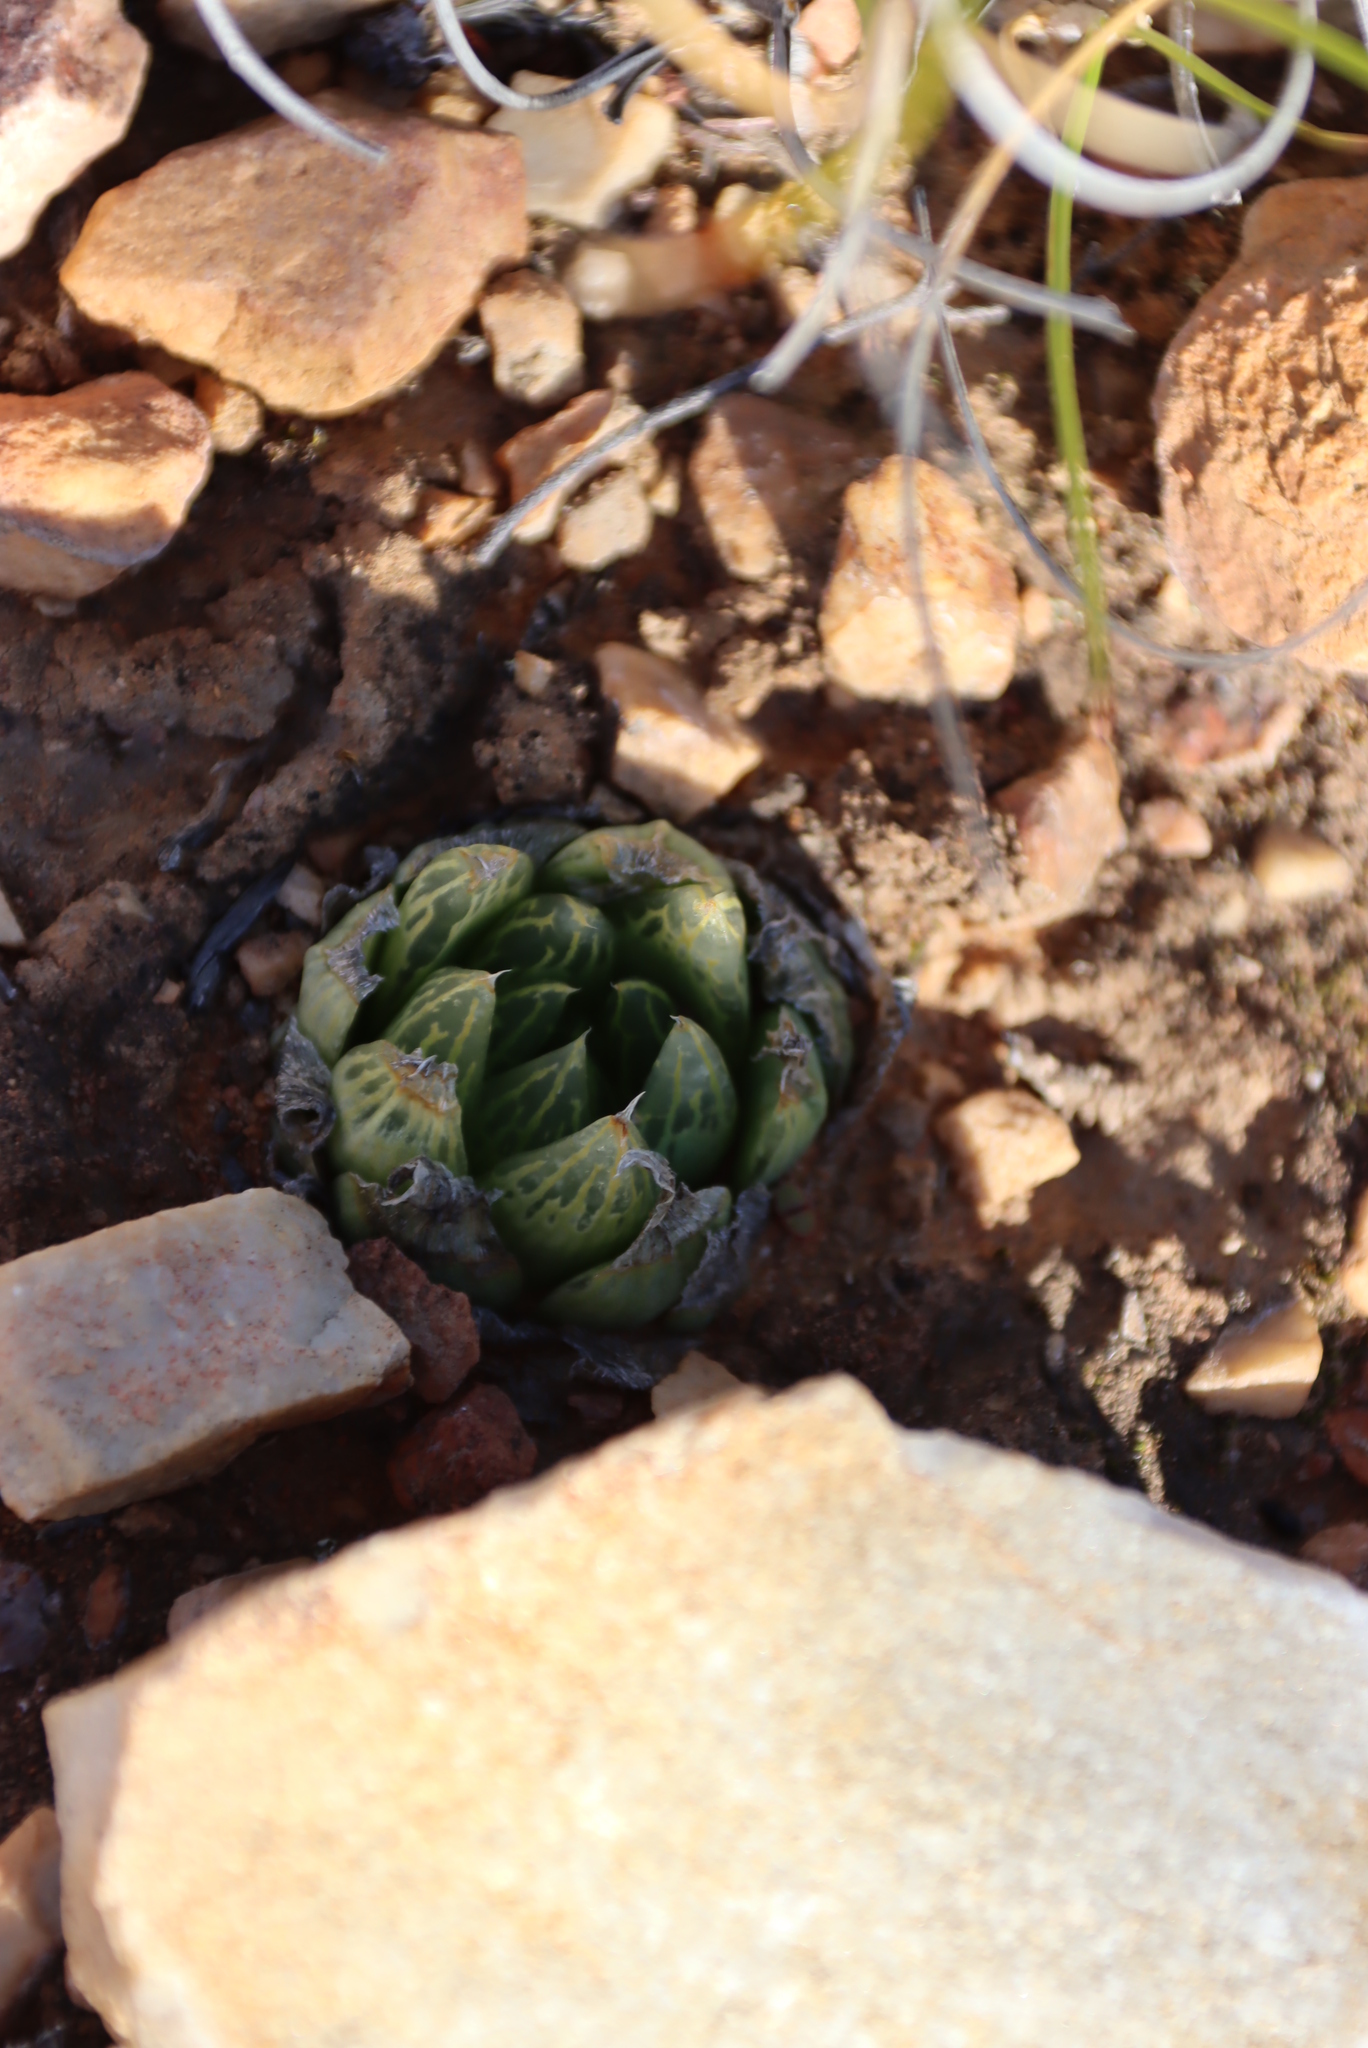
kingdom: Plantae
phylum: Tracheophyta
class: Liliopsida
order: Asparagales
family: Asphodelaceae
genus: Haworthia
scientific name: Haworthia cooperi
